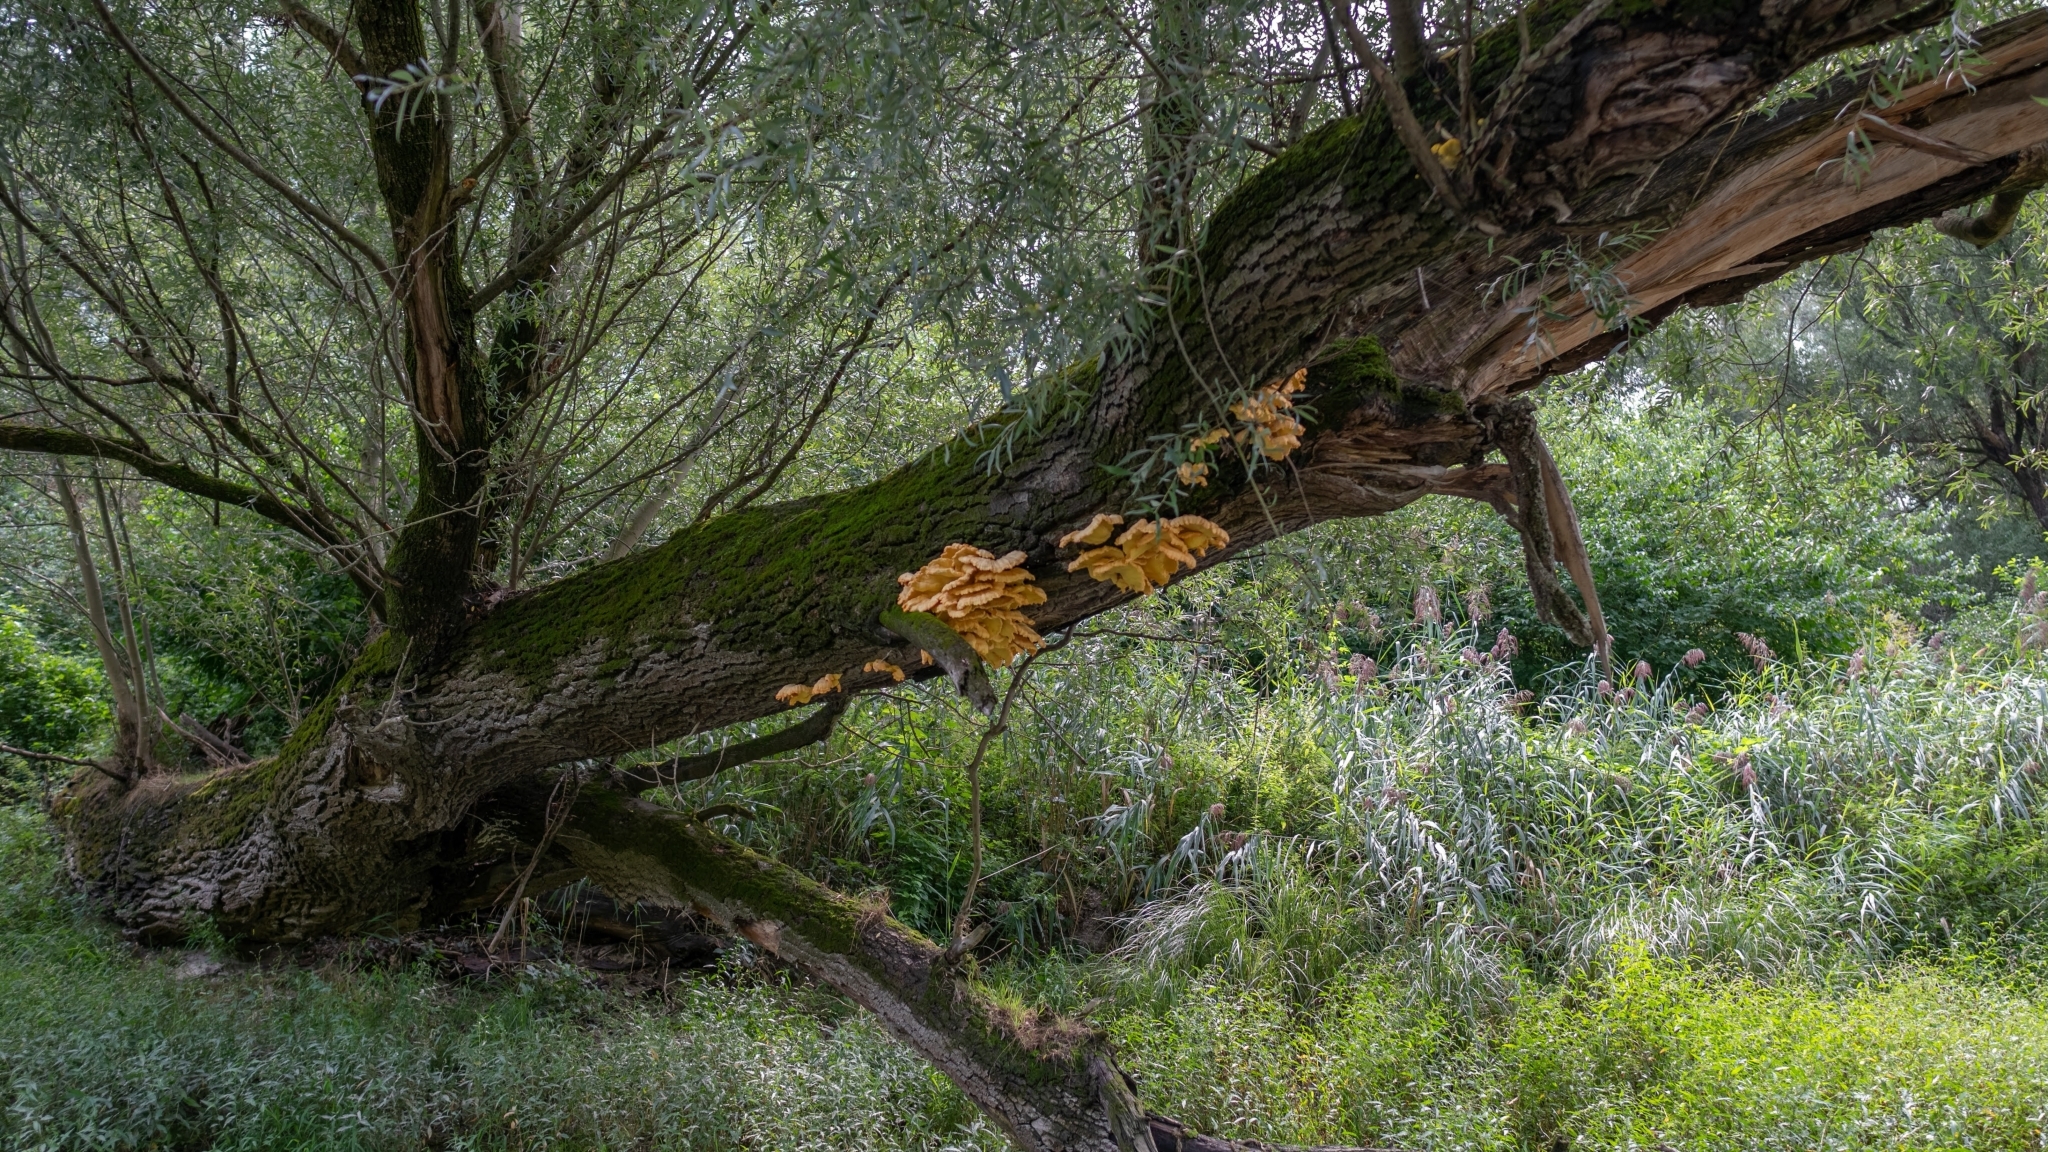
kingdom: Fungi
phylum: Basidiomycota
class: Agaricomycetes
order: Polyporales
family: Laetiporaceae
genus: Laetiporus
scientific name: Laetiporus sulphureus
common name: Chicken of the woods
